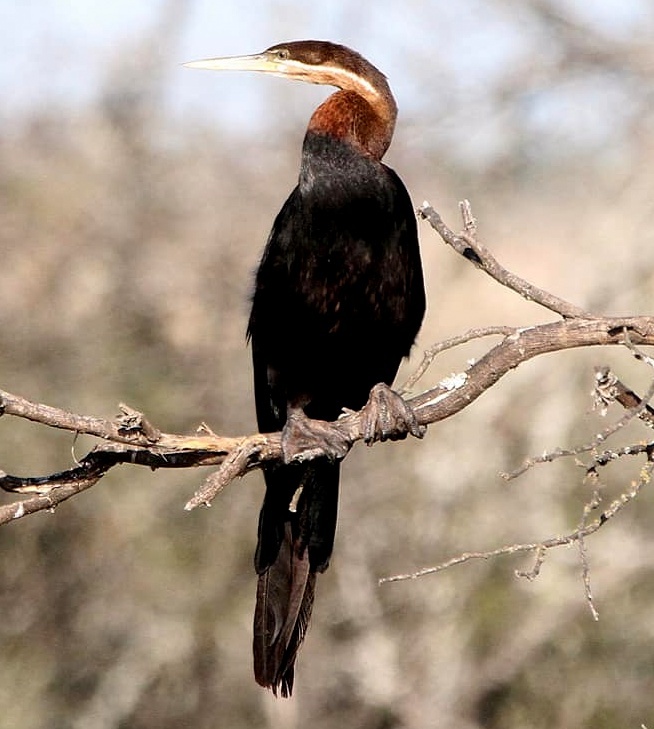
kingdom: Animalia
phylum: Chordata
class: Aves
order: Suliformes
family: Anhingidae
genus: Anhinga
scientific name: Anhinga rufa
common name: African darter
